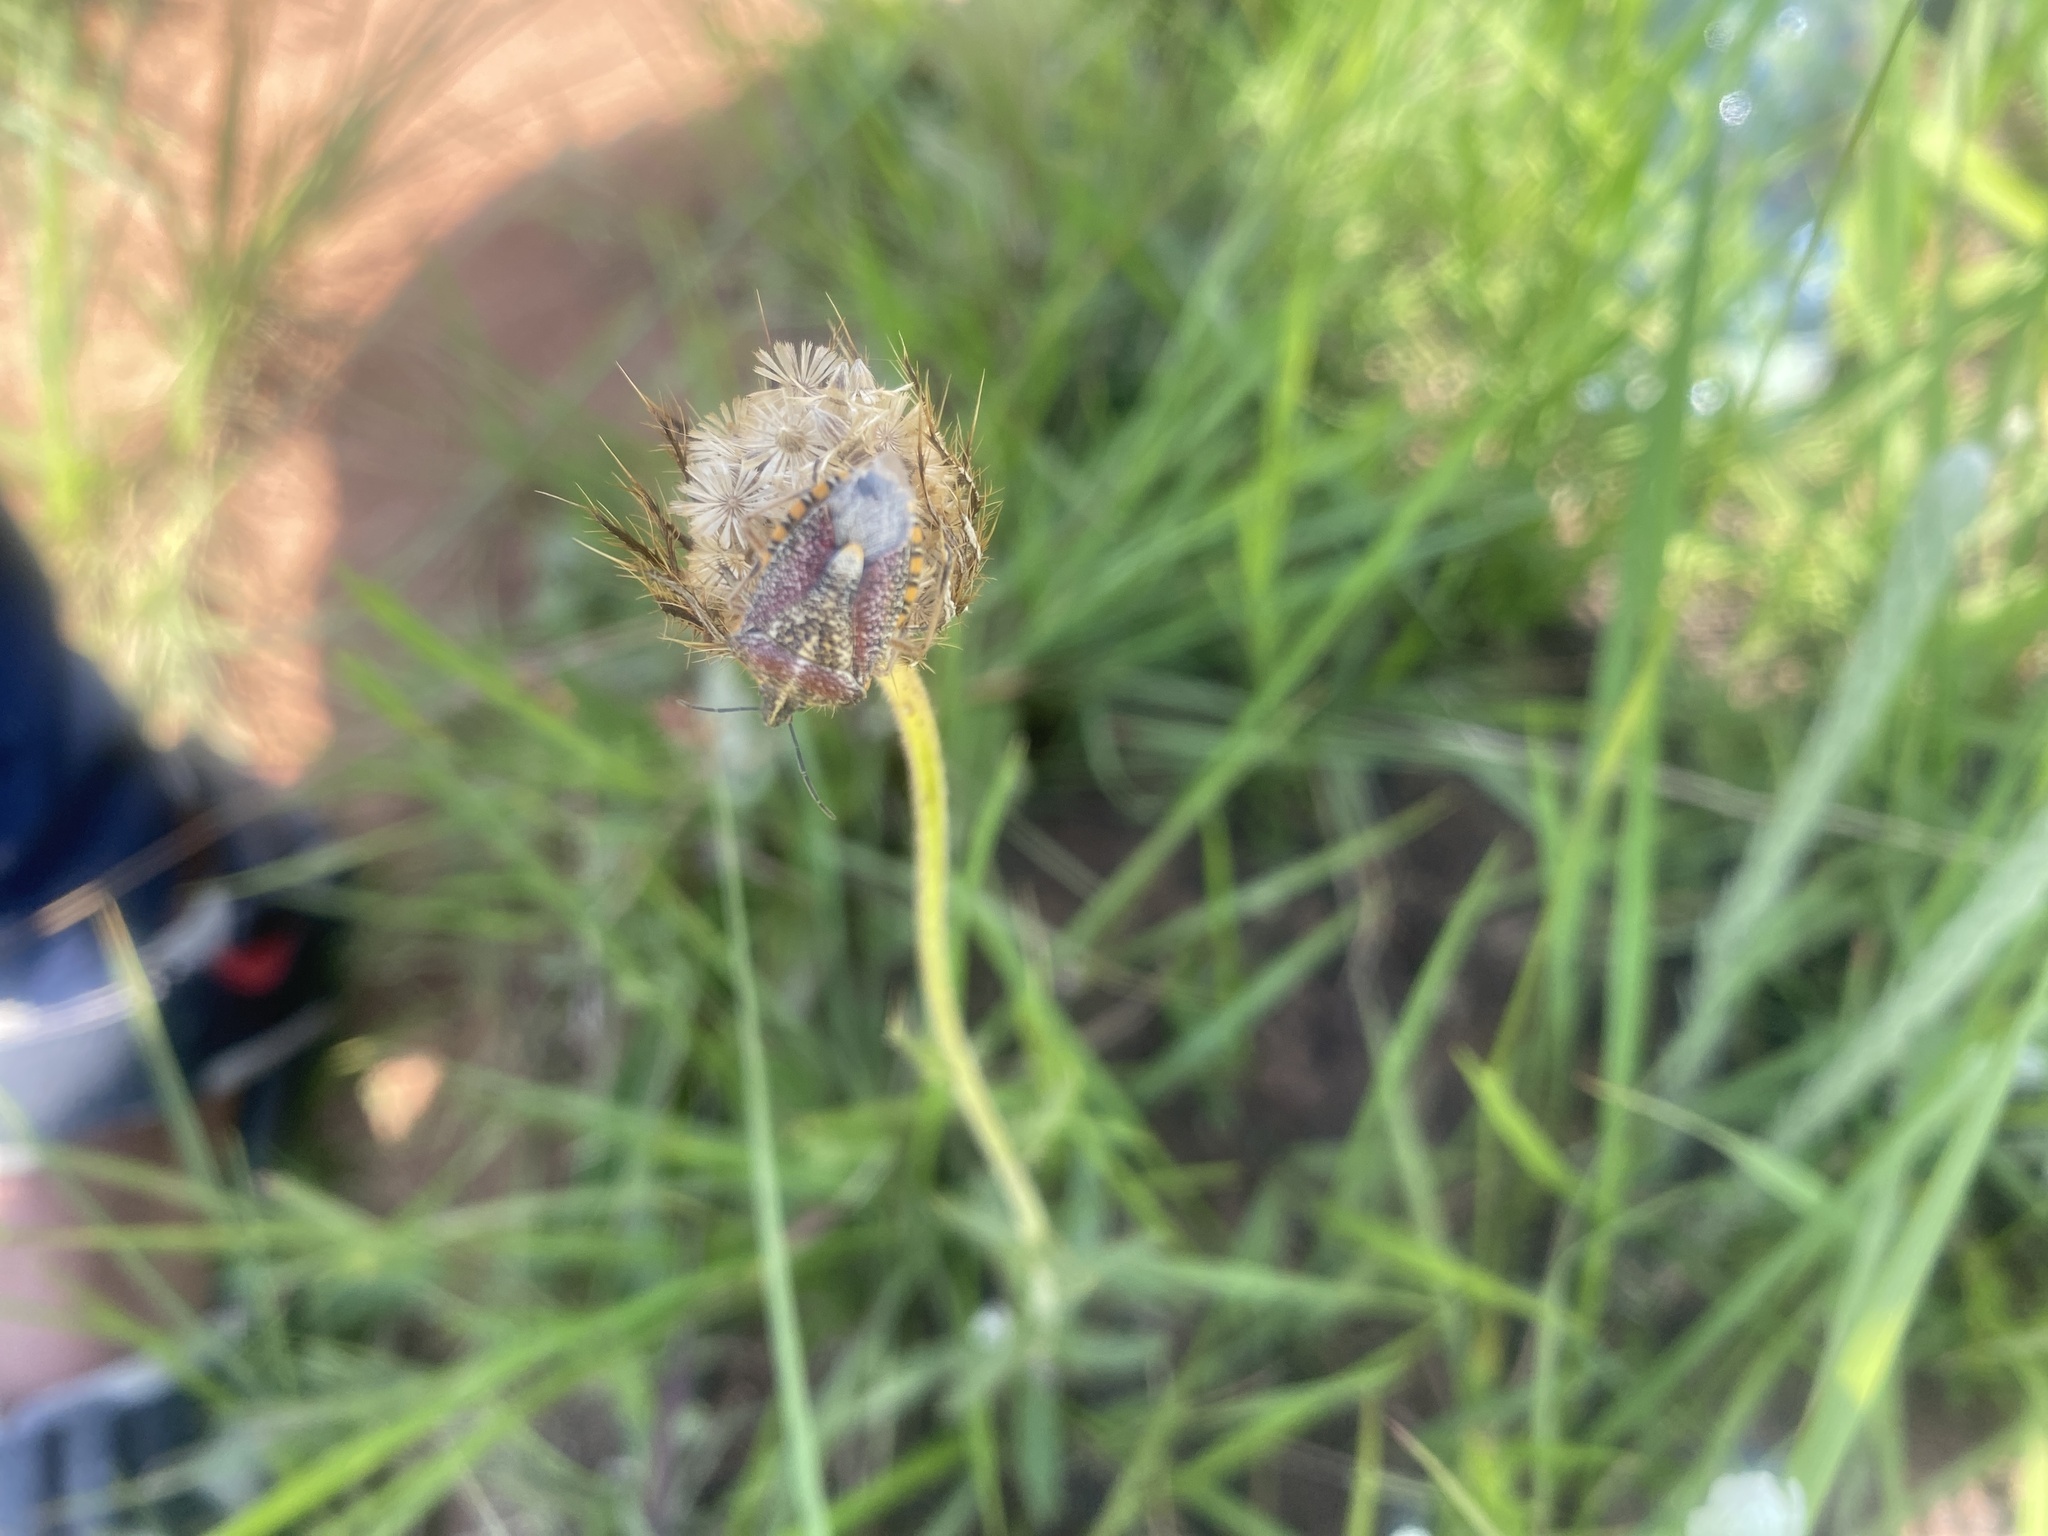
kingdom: Animalia
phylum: Arthropoda
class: Insecta
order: Hemiptera
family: Pentatomidae
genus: Agonoscelis
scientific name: Agonoscelis versicoloratus
